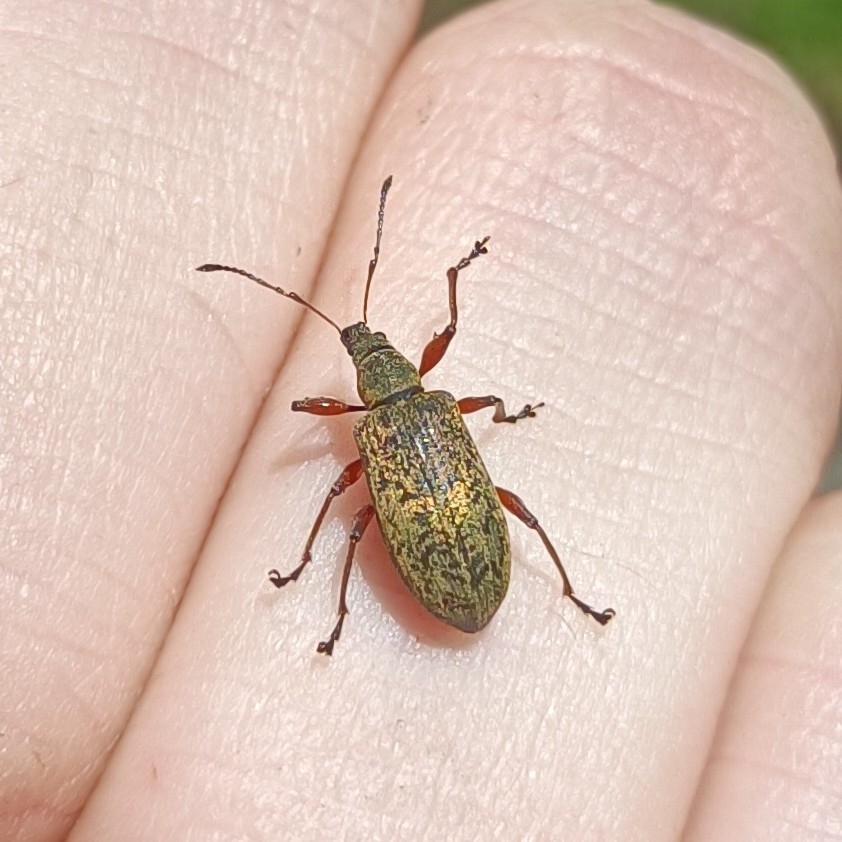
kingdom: Animalia
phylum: Arthropoda
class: Insecta
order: Coleoptera
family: Curculionidae
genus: Phyllobius
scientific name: Phyllobius glaucus
